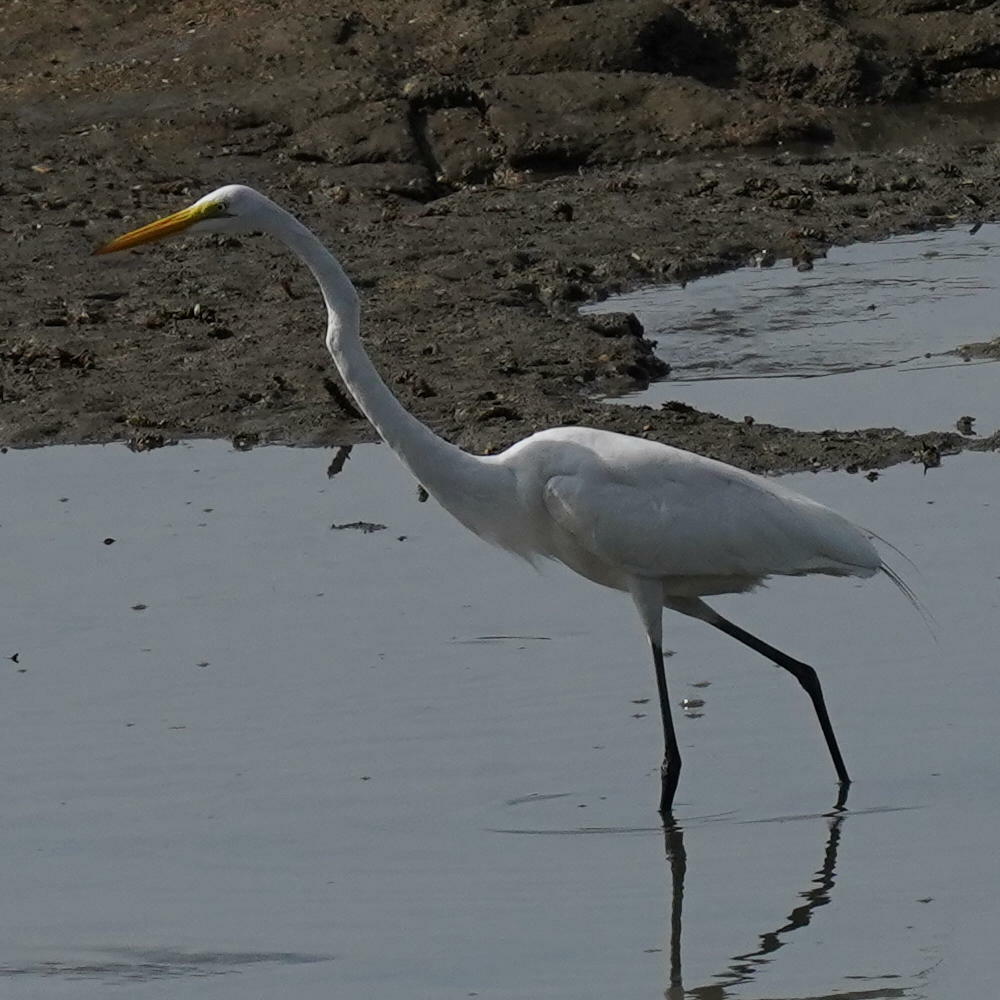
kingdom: Animalia
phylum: Chordata
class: Aves
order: Pelecaniformes
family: Ardeidae
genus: Ardea
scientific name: Ardea alba
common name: Great egret
